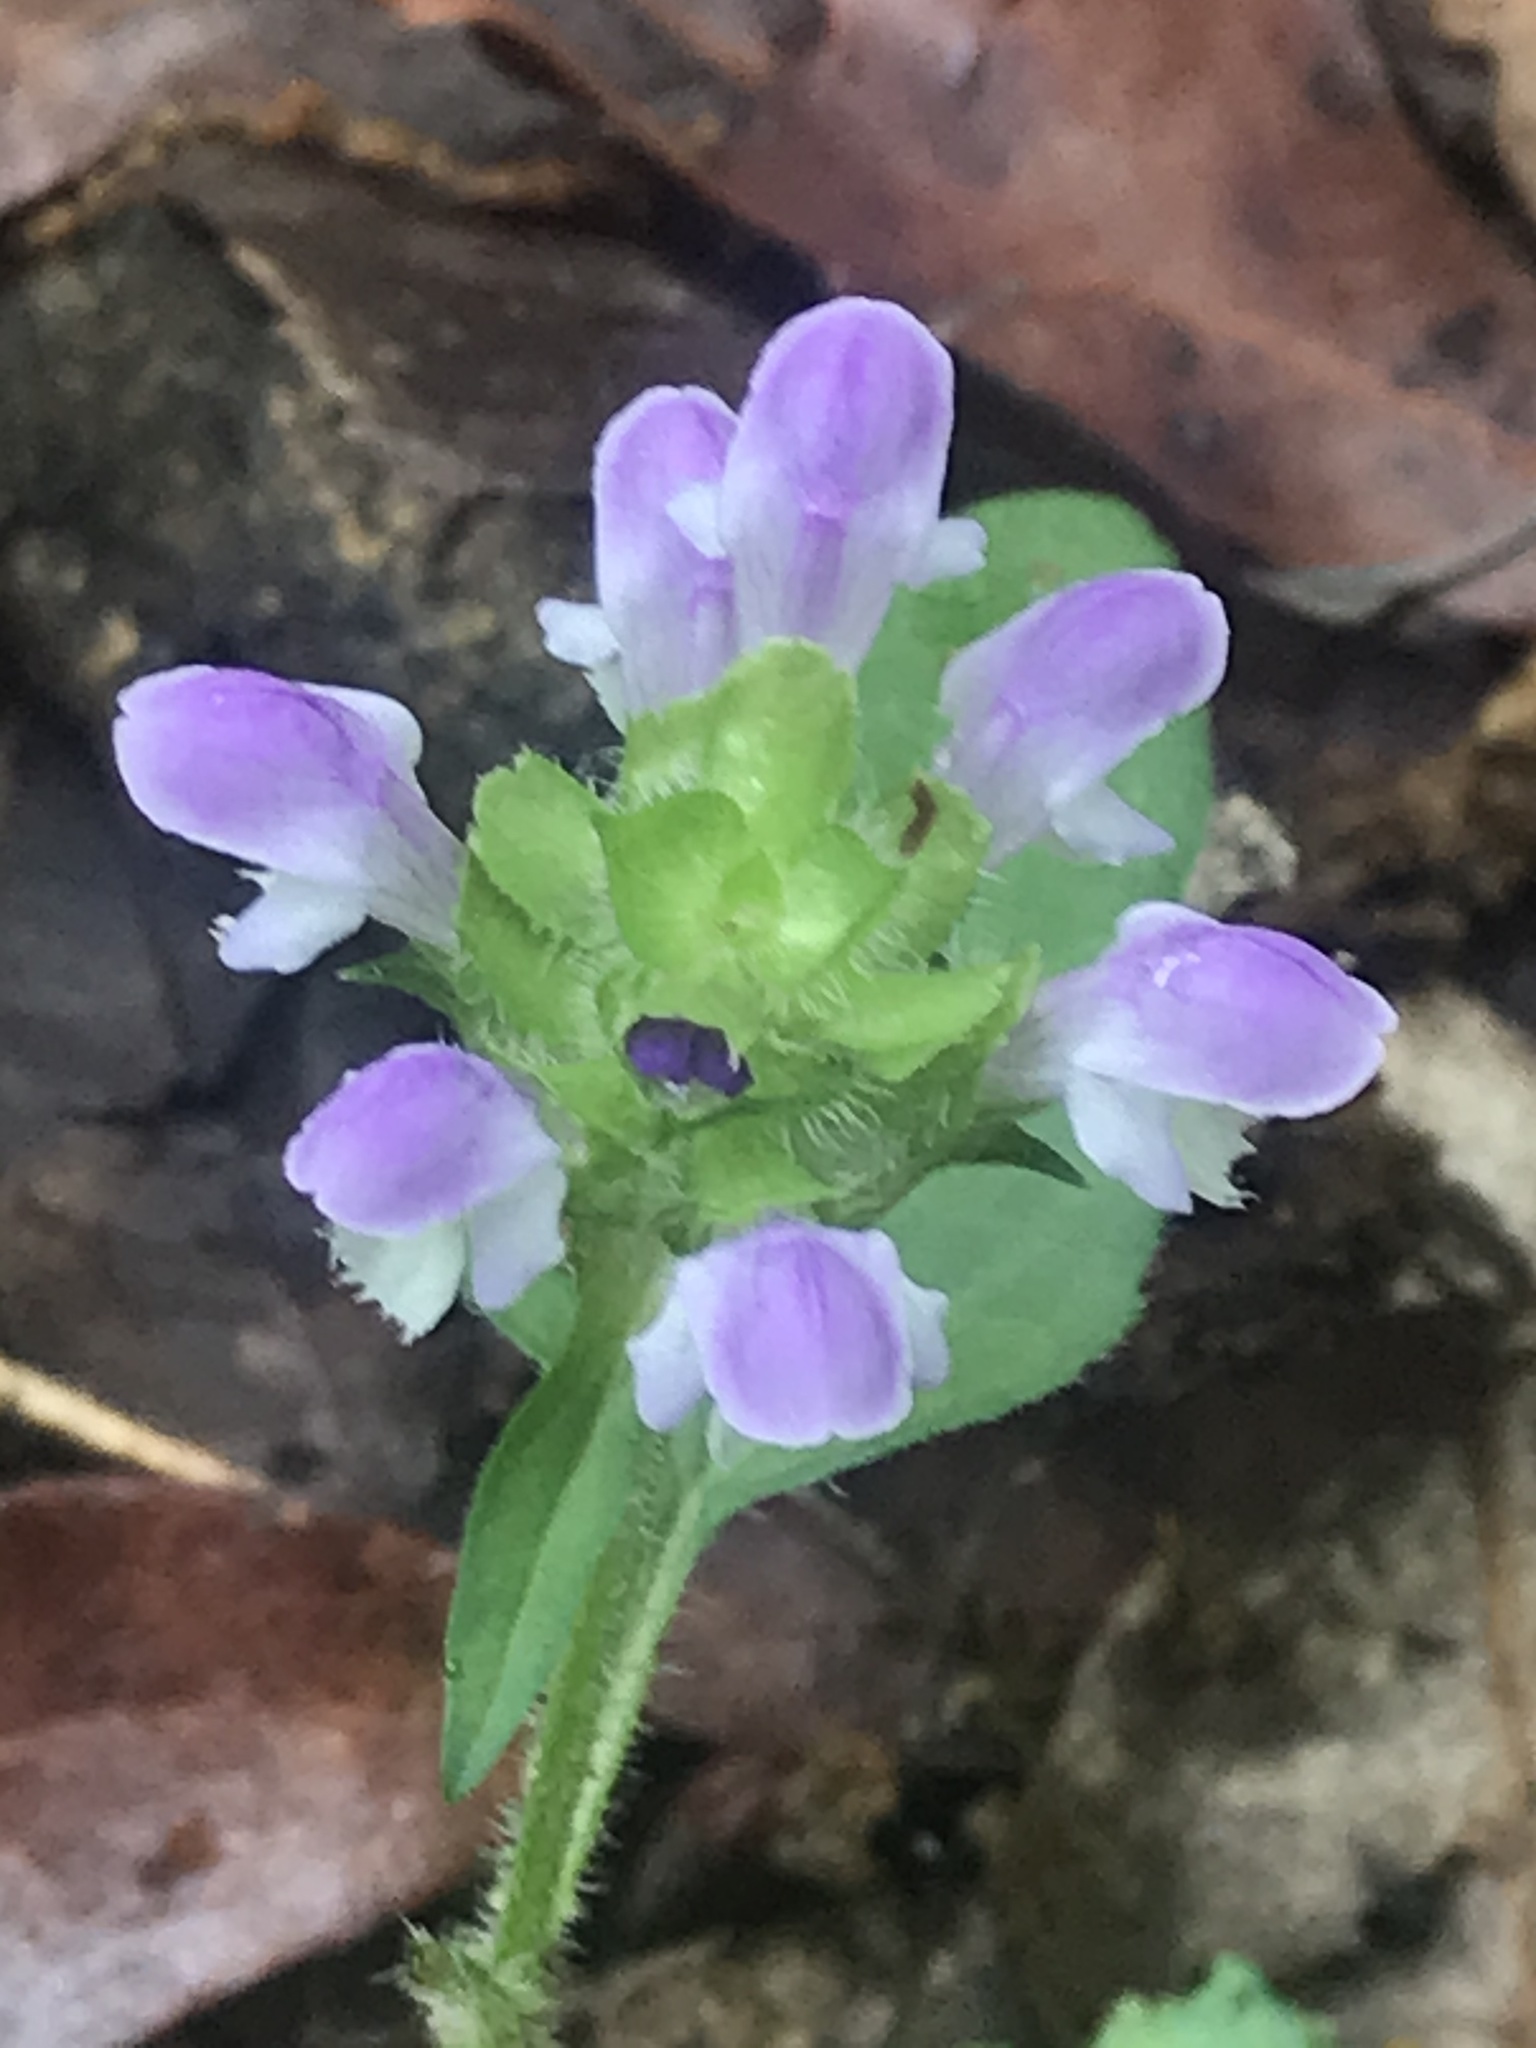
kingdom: Plantae
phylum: Tracheophyta
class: Magnoliopsida
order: Lamiales
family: Lamiaceae
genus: Prunella
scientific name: Prunella vulgaris
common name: Heal-all
